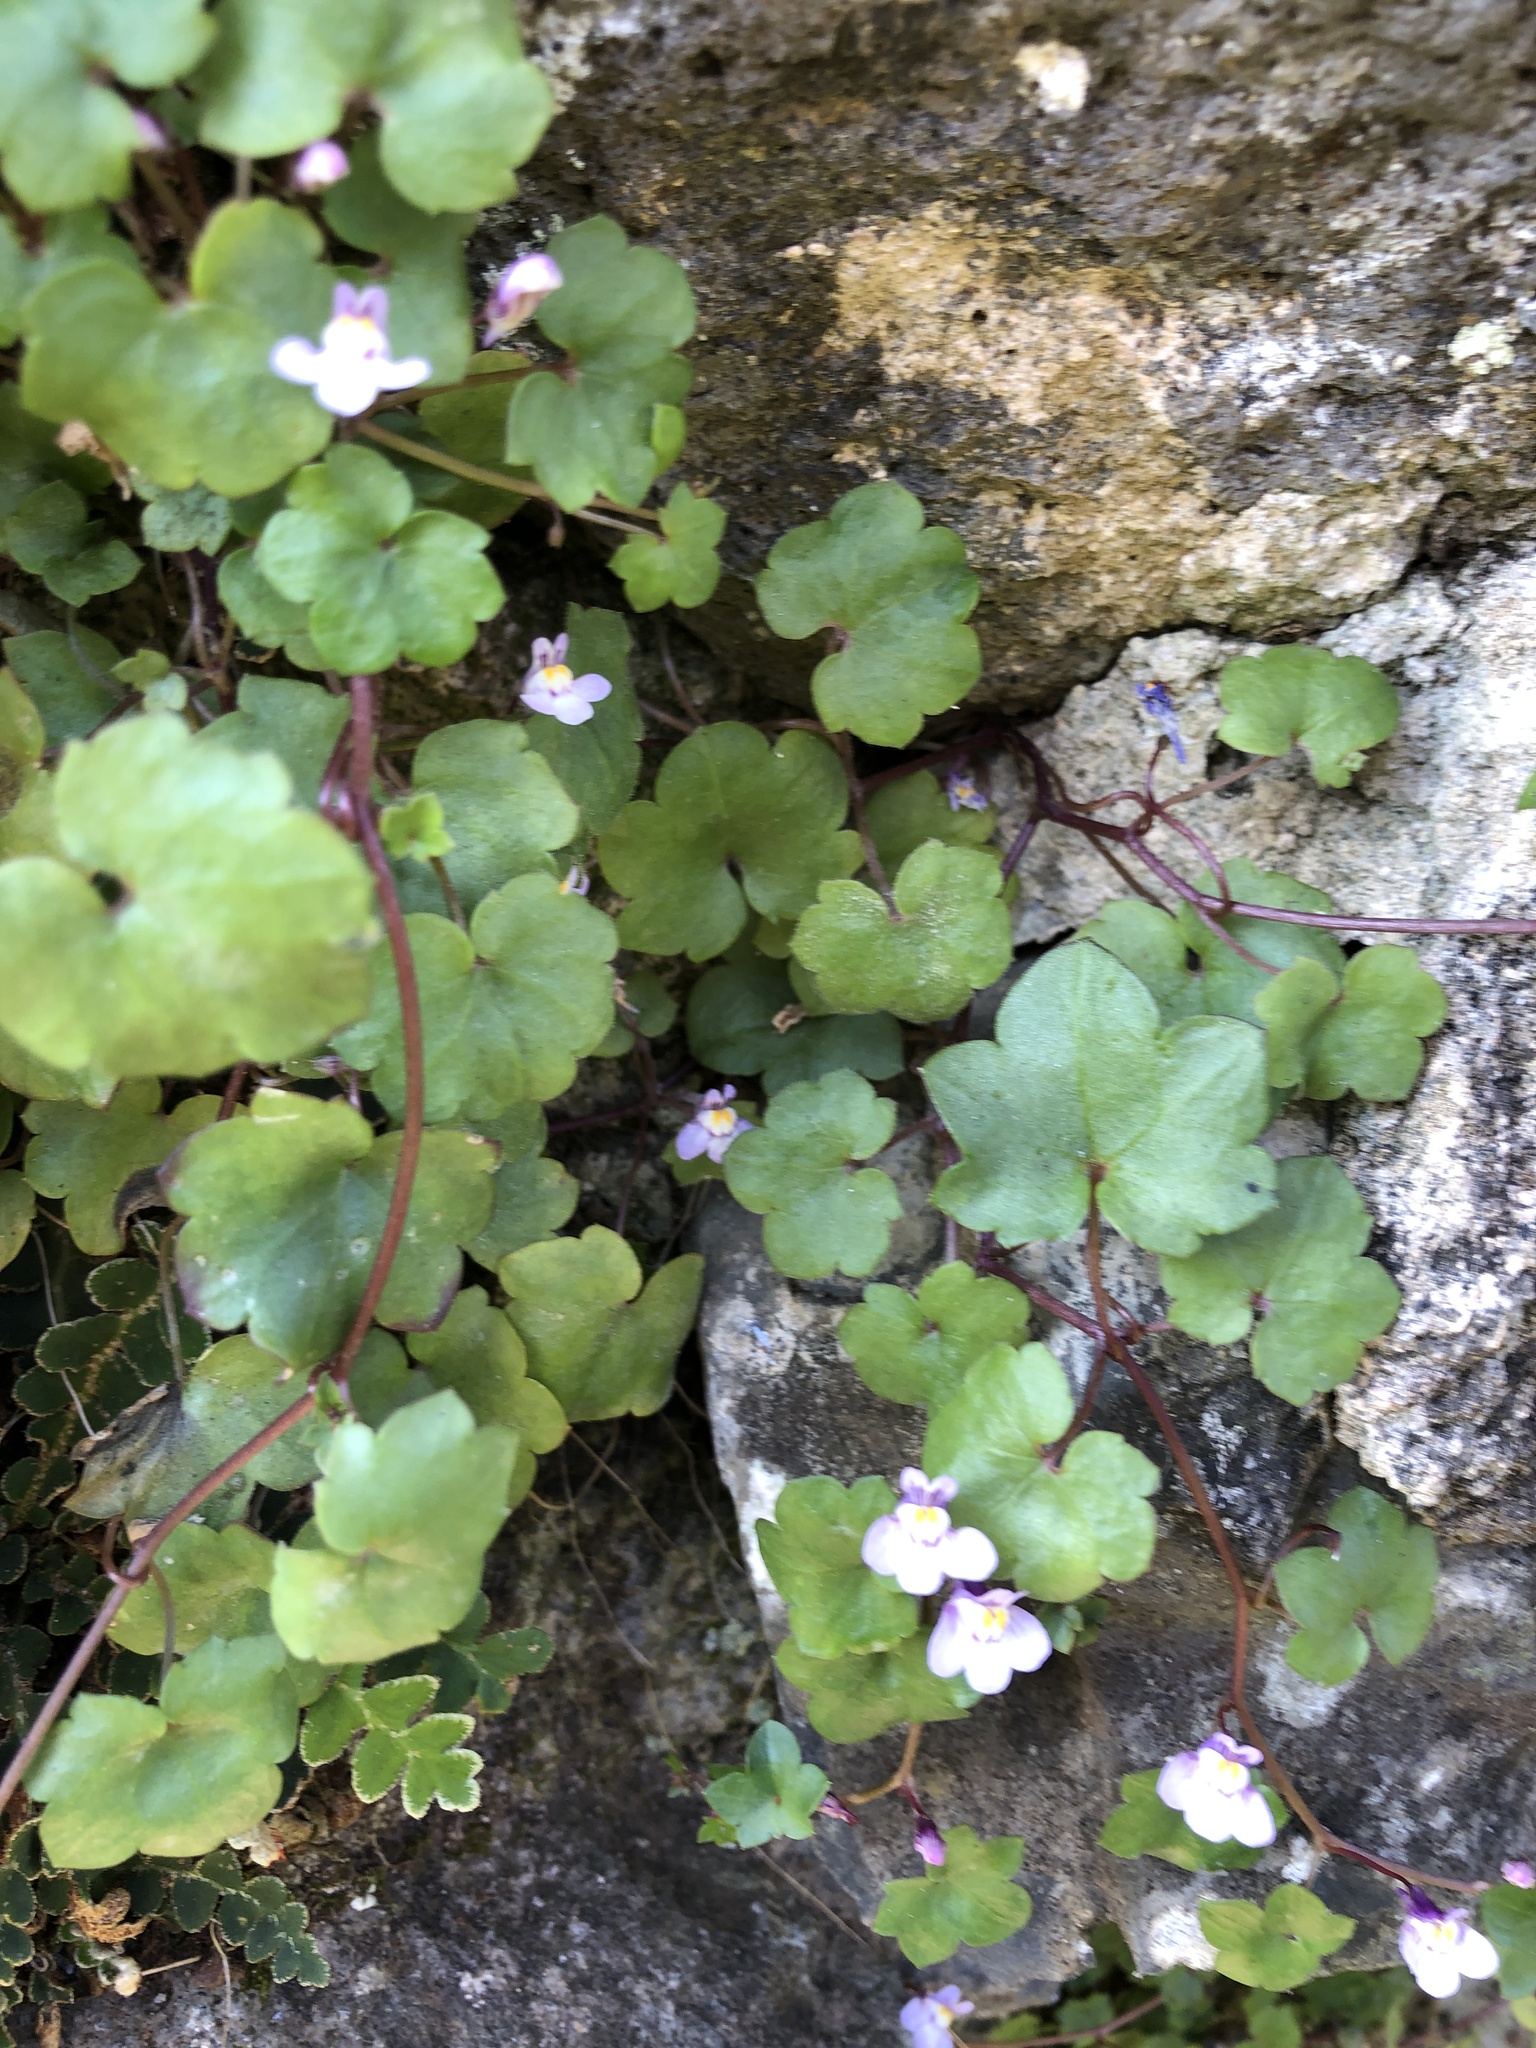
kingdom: Plantae
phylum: Tracheophyta
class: Magnoliopsida
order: Lamiales
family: Plantaginaceae
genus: Cymbalaria
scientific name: Cymbalaria muralis
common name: Ivy-leaved toadflax
